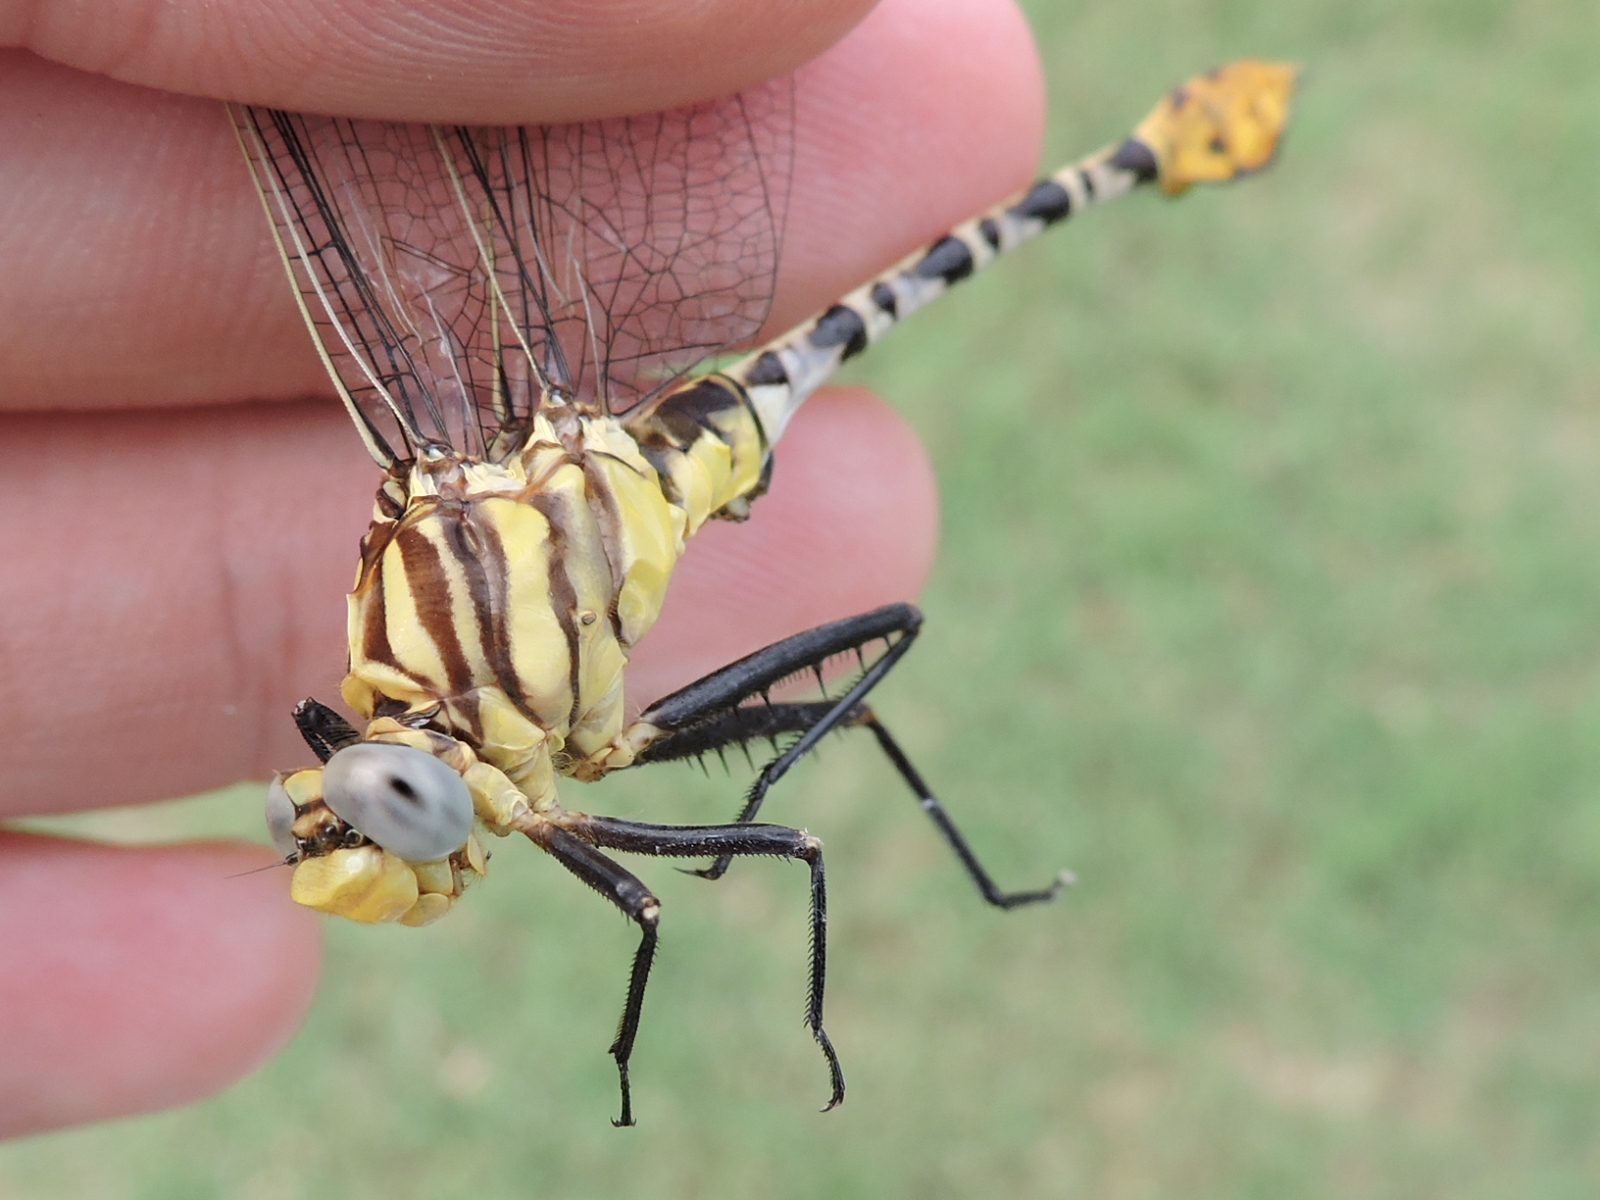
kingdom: Animalia
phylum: Arthropoda
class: Insecta
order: Odonata
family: Gomphidae
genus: Dromogomphus
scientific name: Dromogomphus spoliatus
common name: Flag-tailed spinyleg
